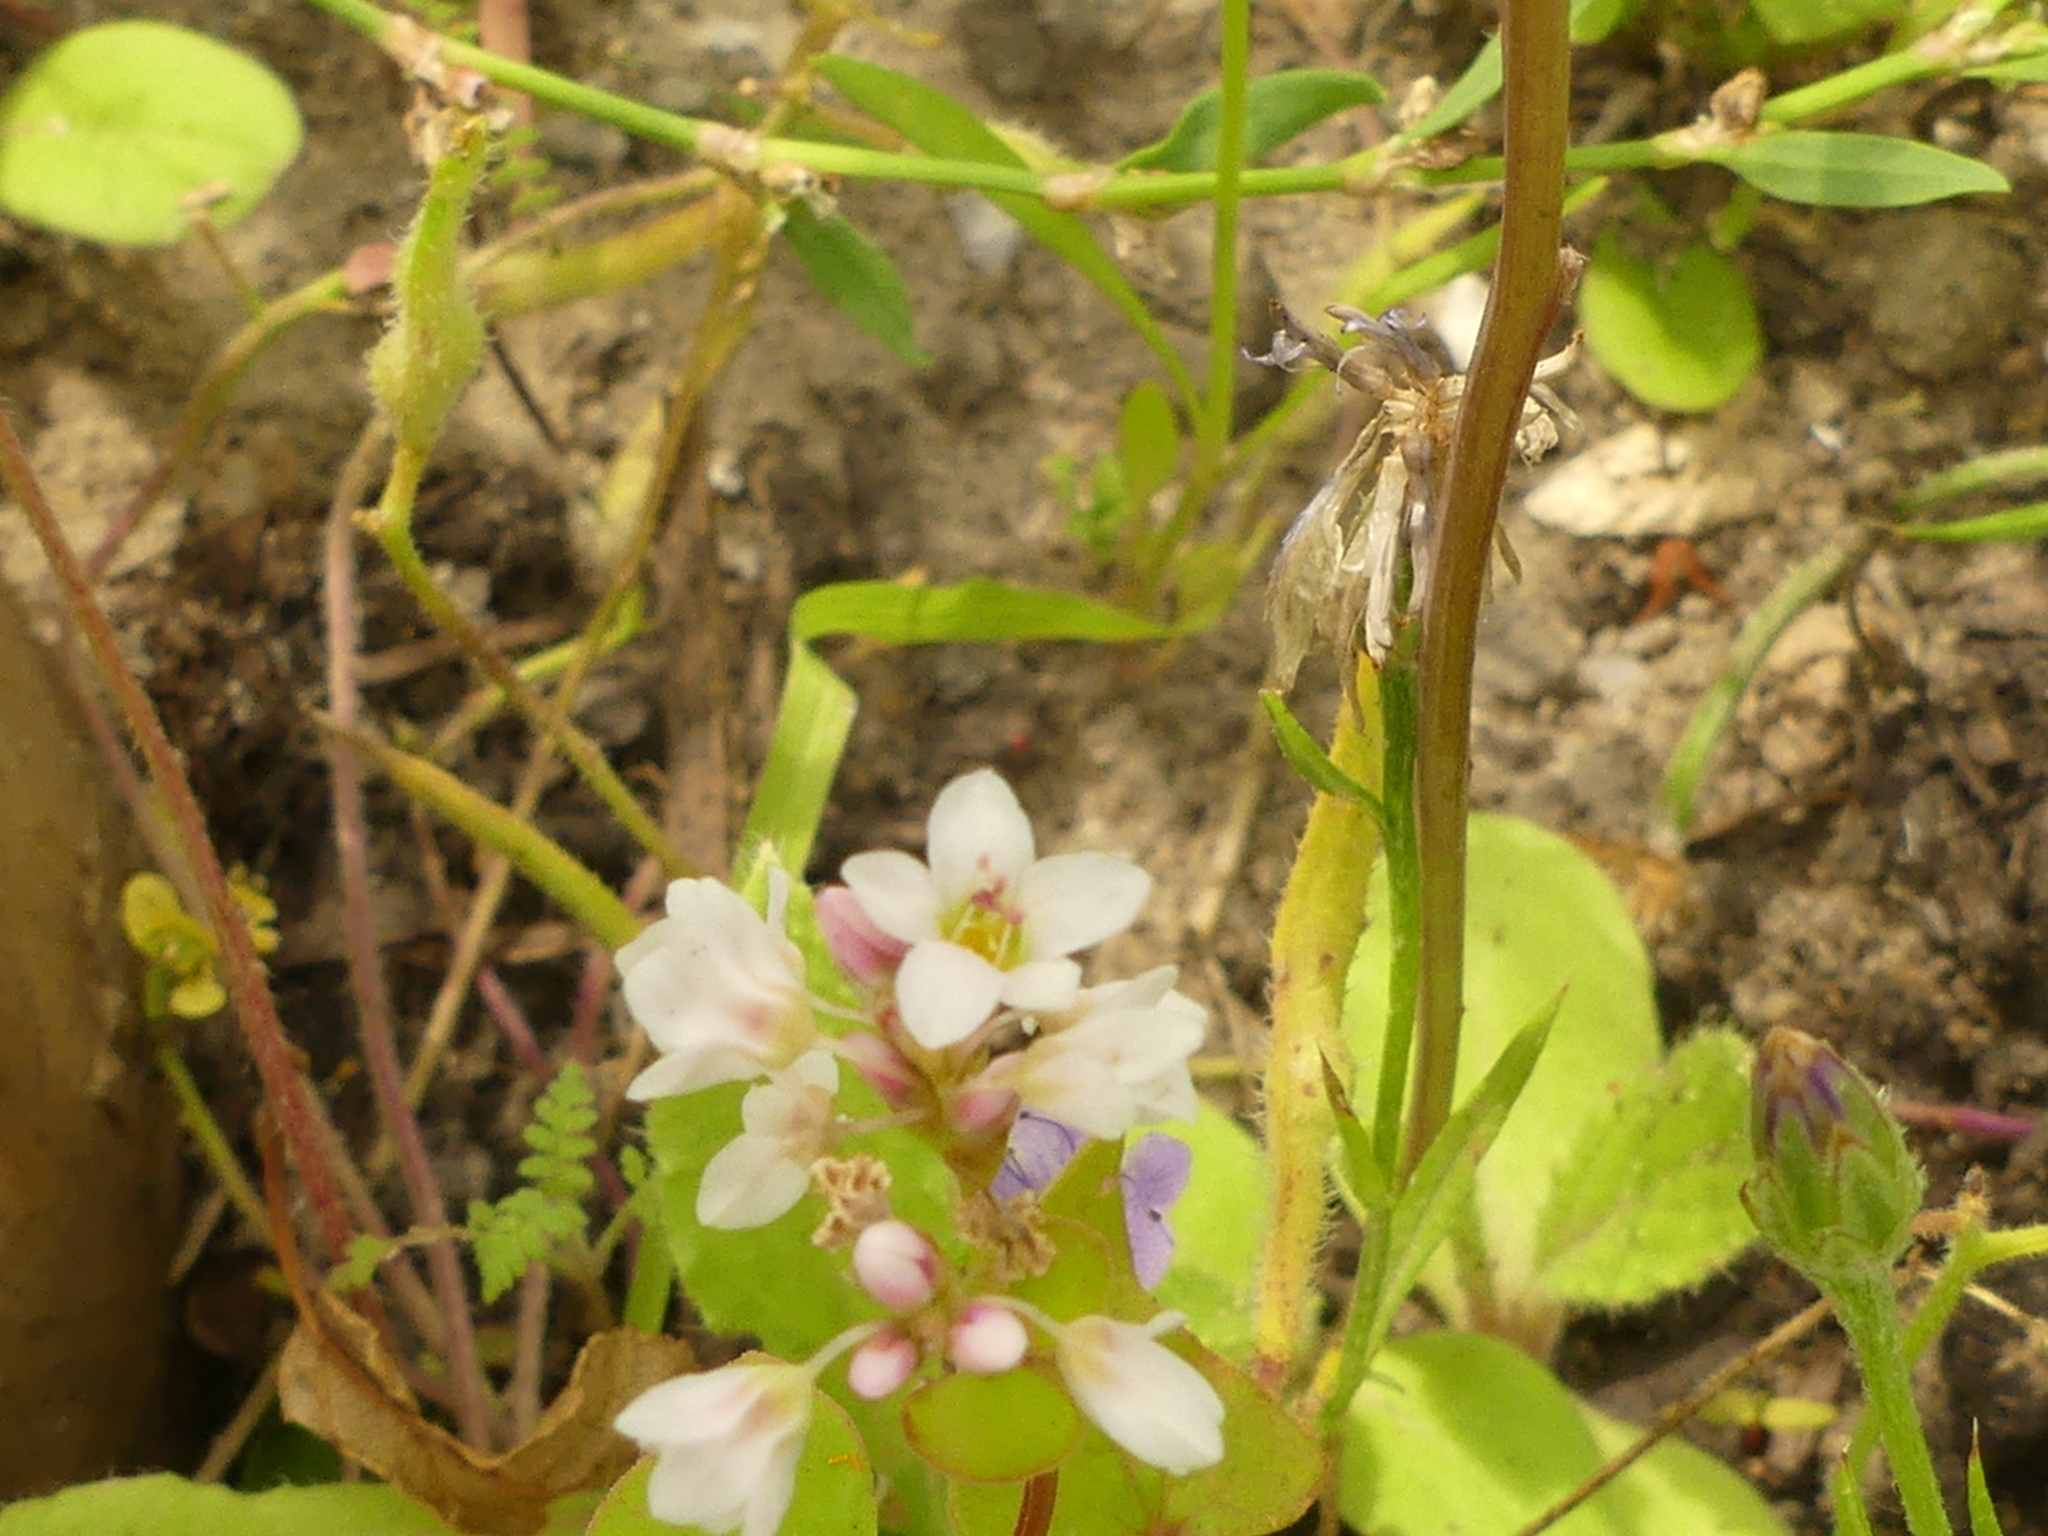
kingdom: Plantae
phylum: Tracheophyta
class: Magnoliopsida
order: Caryophyllales
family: Polygonaceae
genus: Fagopyrum
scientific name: Fagopyrum esculentum
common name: Buckwheat
